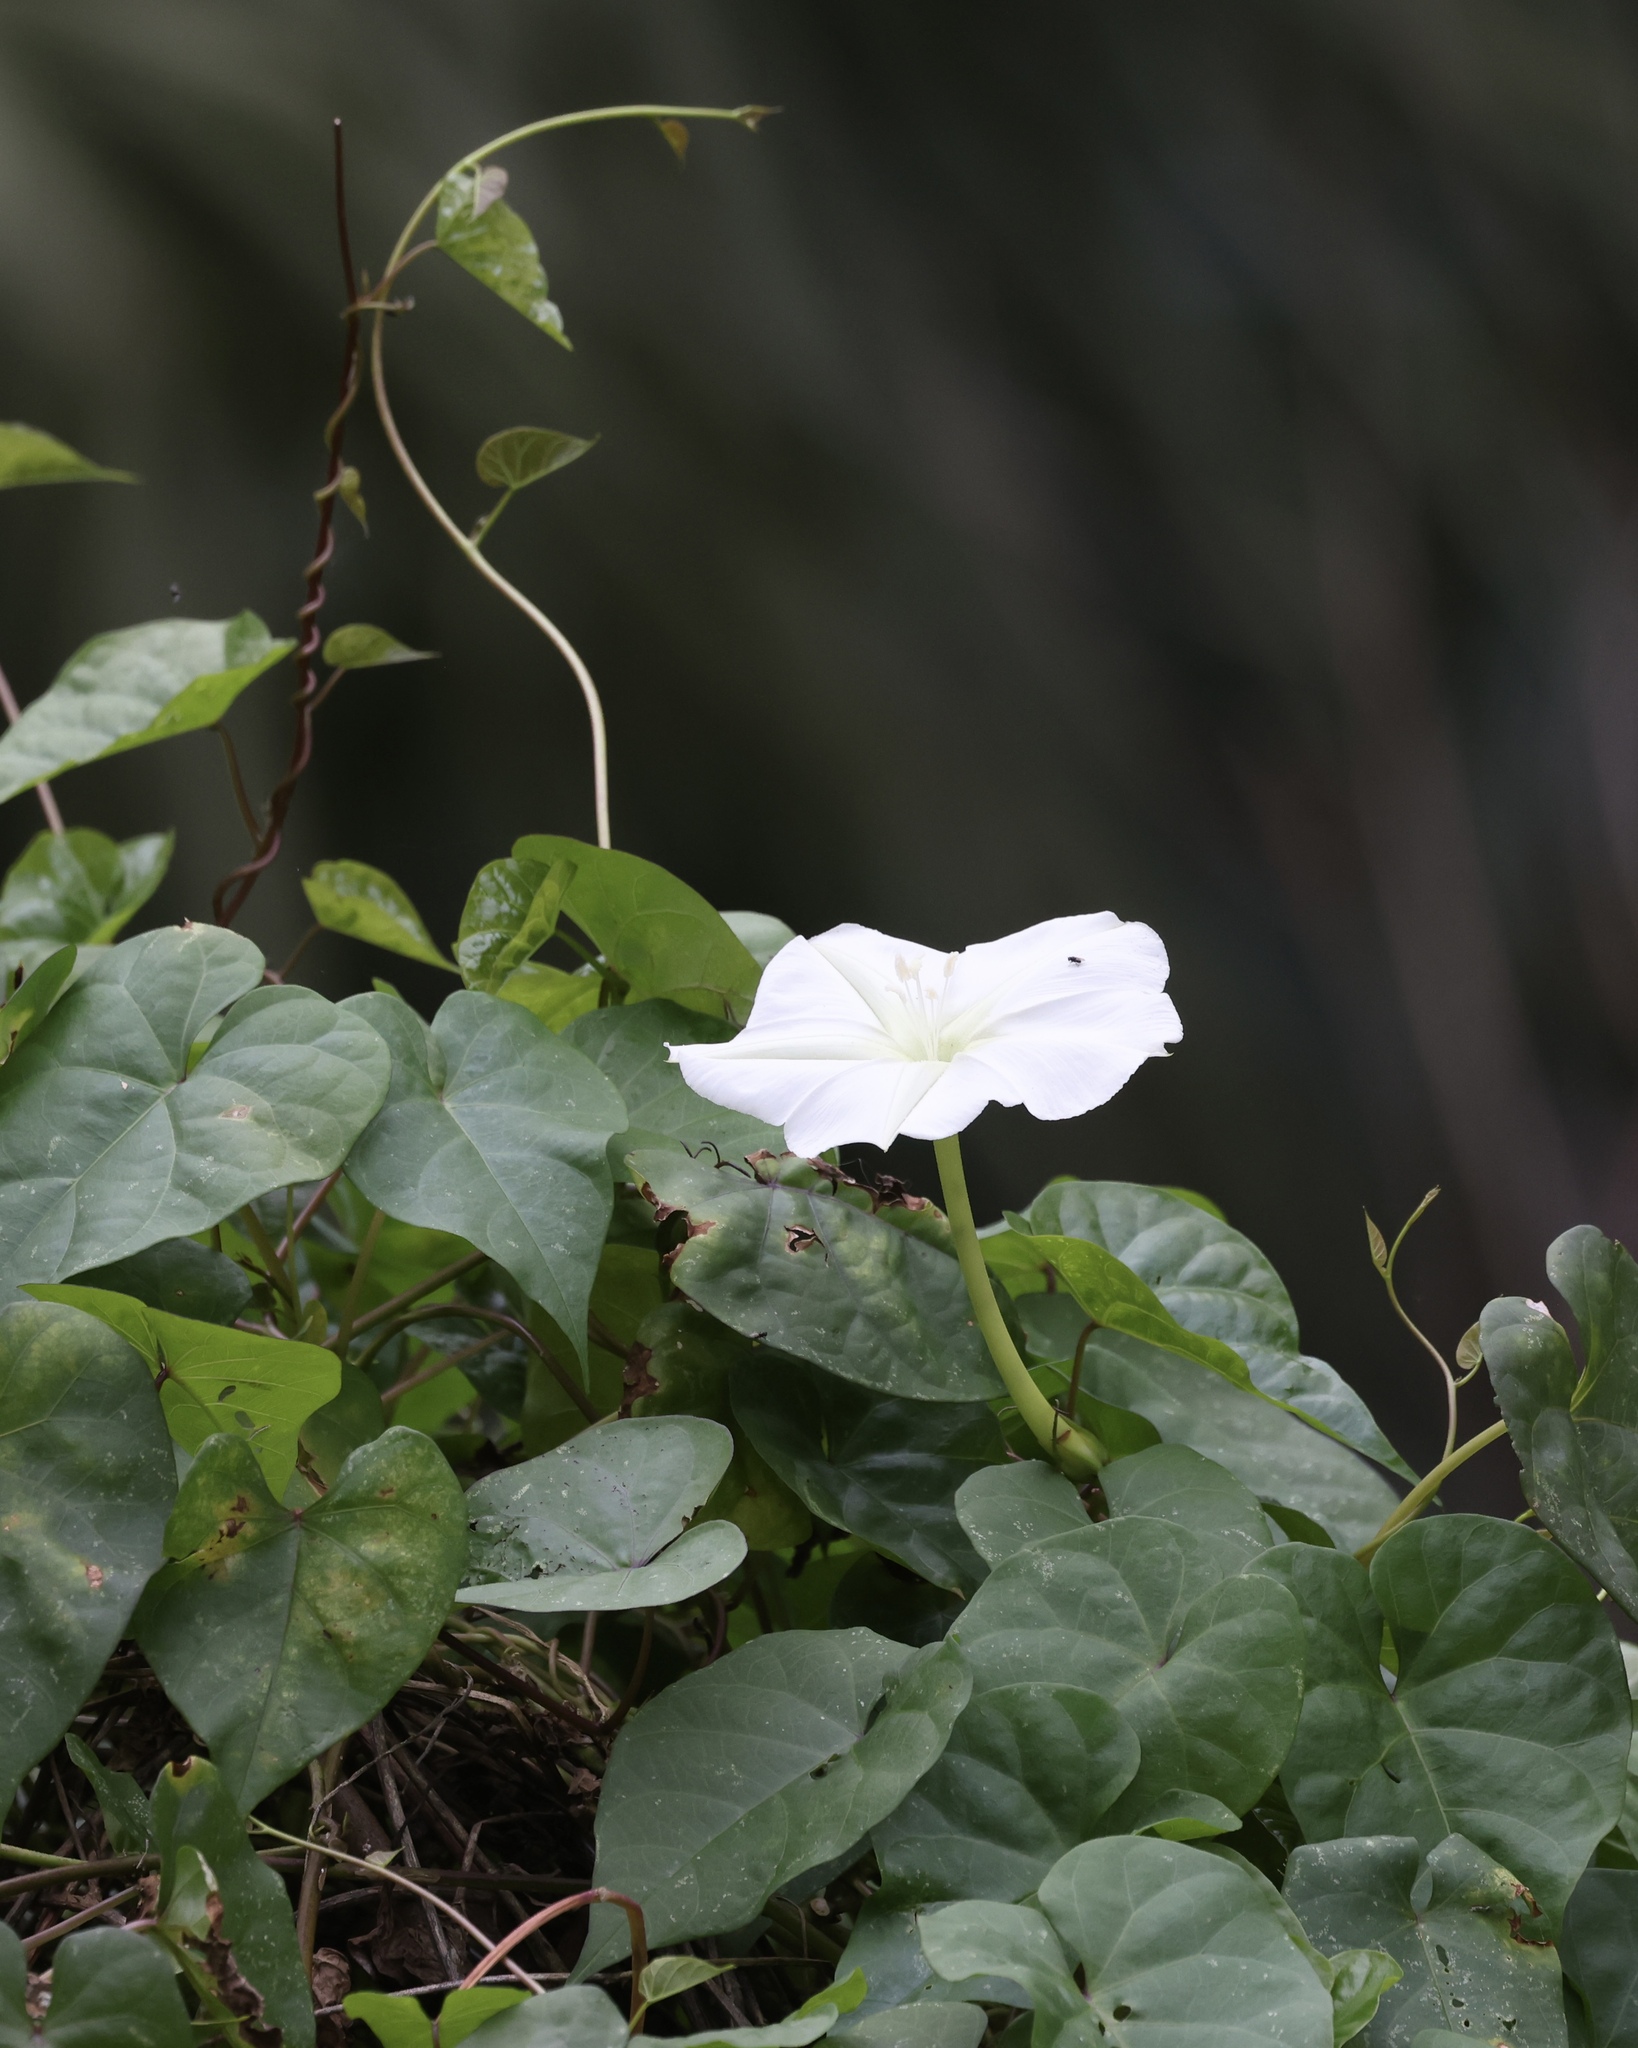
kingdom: Plantae
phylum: Tracheophyta
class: Magnoliopsida
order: Solanales
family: Convolvulaceae
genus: Ipomoea
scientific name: Ipomoea alba
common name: Moonflower
